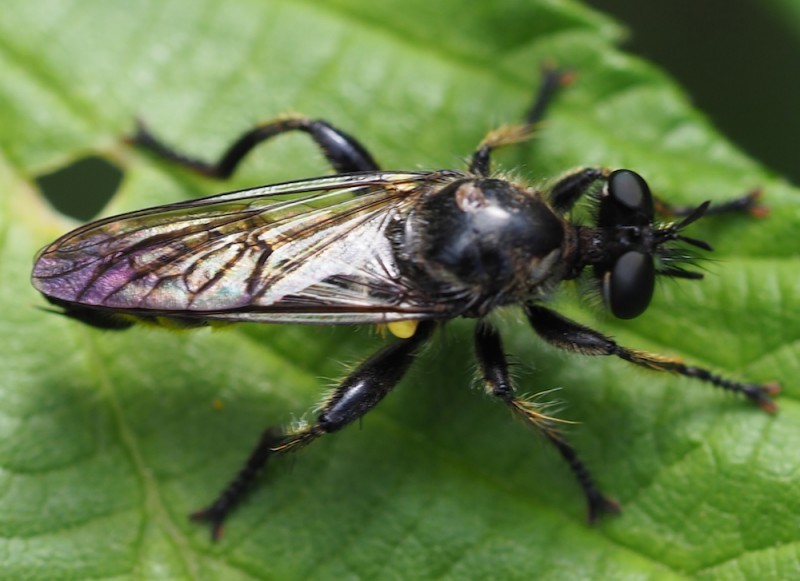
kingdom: Animalia
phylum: Arthropoda
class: Insecta
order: Diptera
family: Asilidae
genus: Lamyra
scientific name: Lamyra fimbriata
